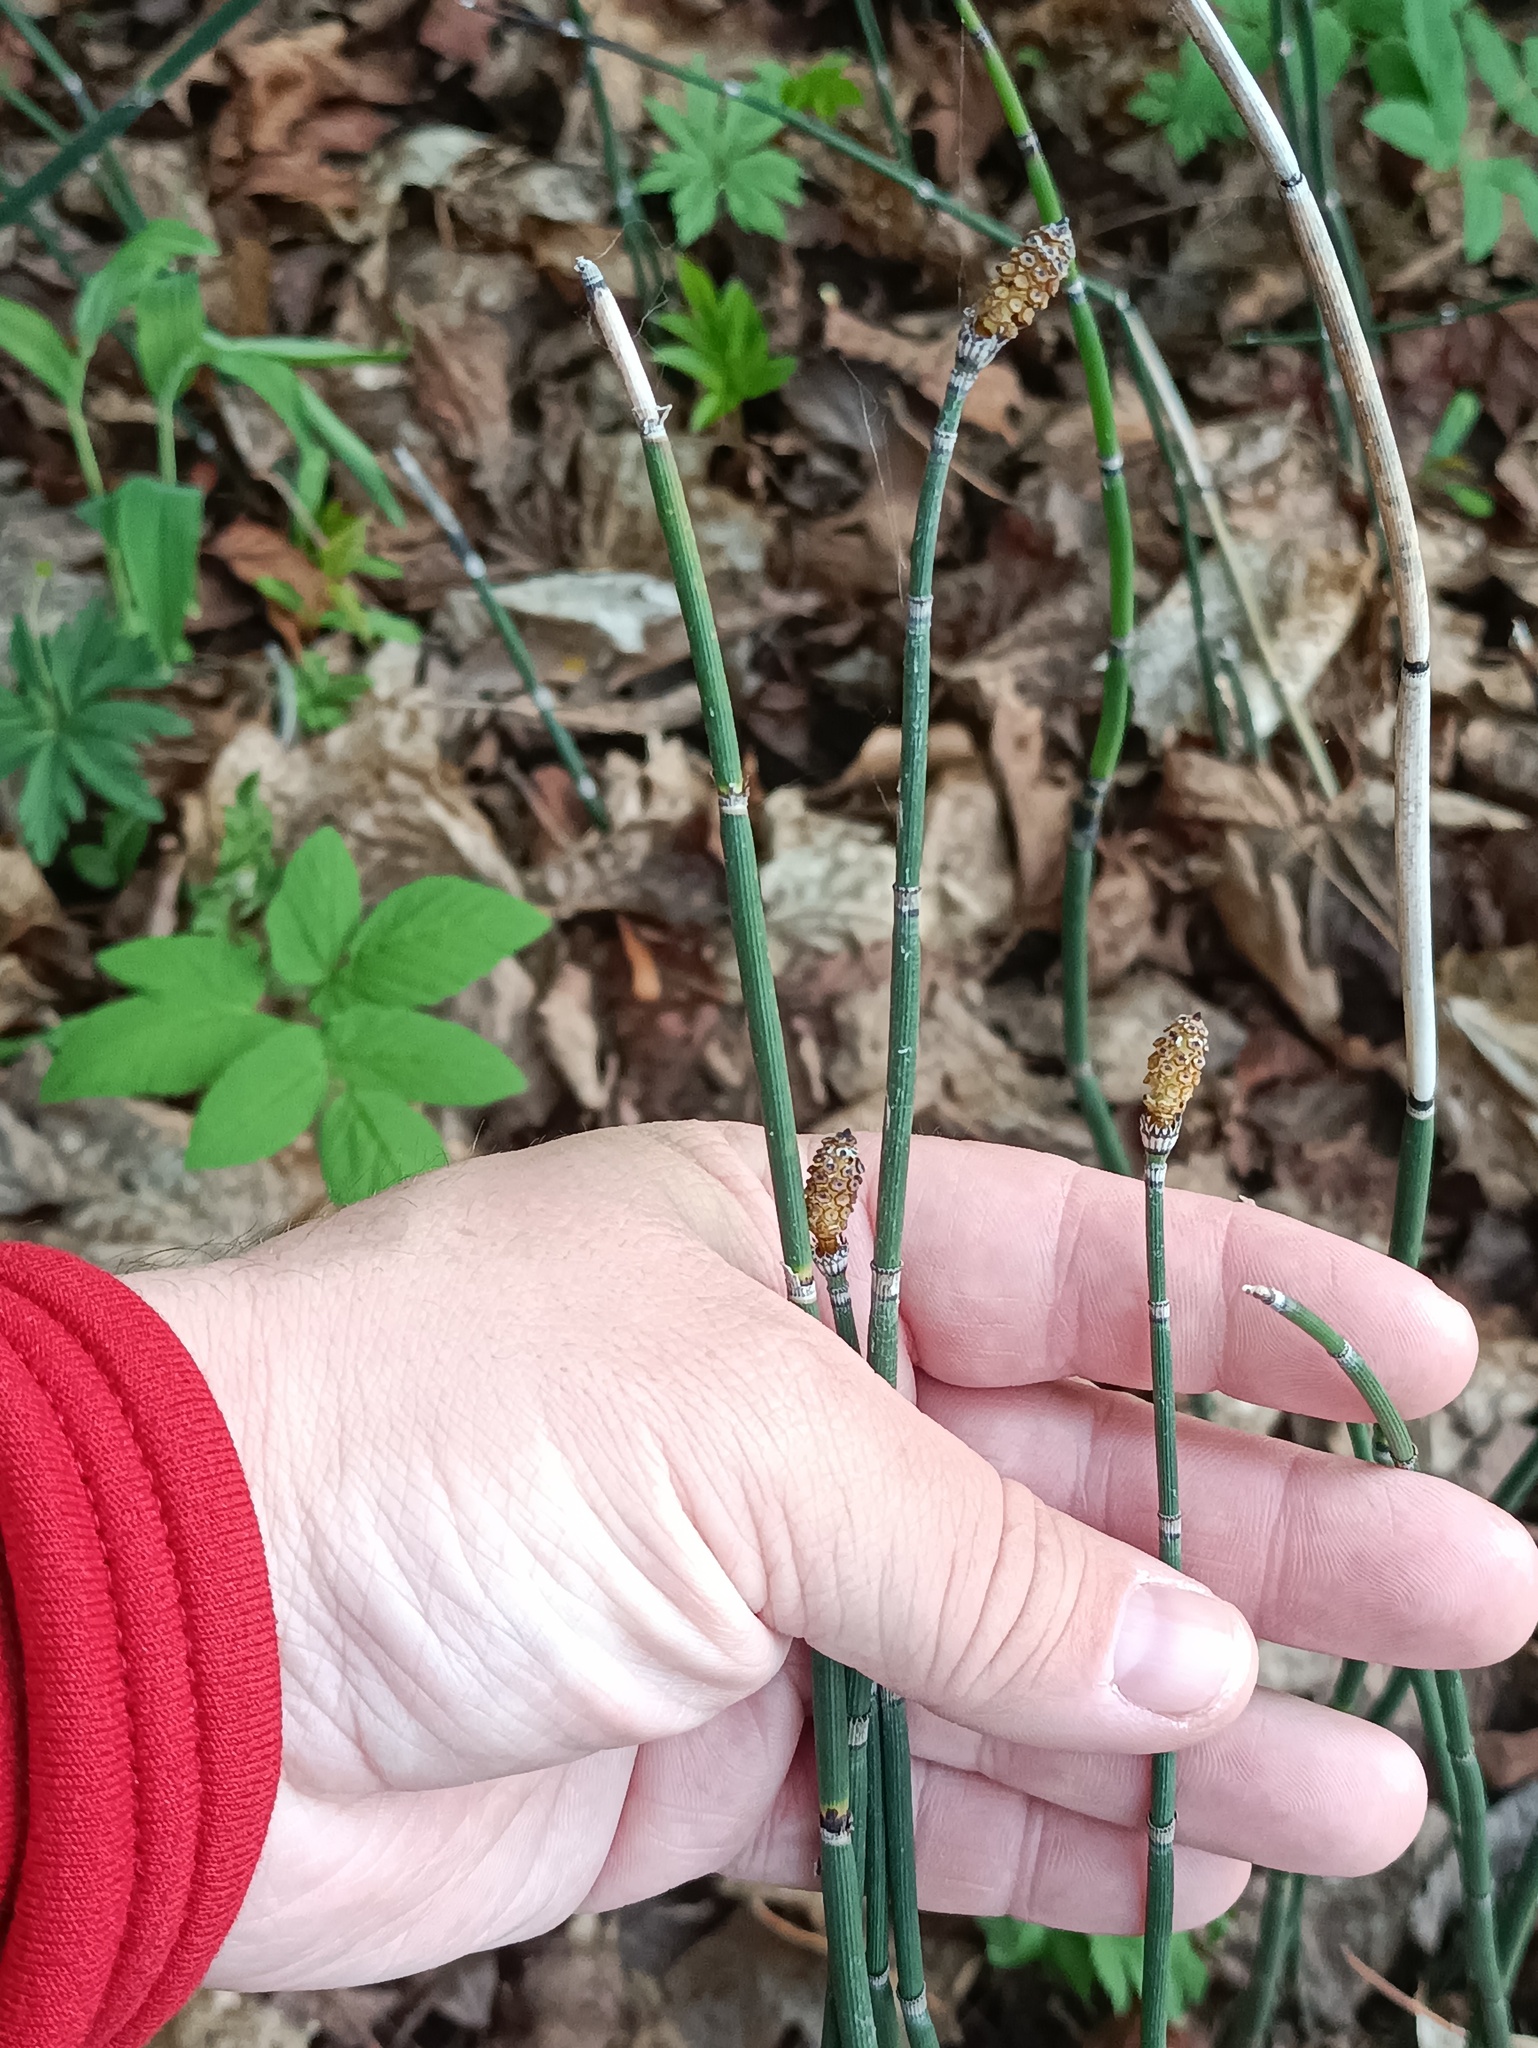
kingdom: Plantae
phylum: Tracheophyta
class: Polypodiopsida
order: Equisetales
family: Equisetaceae
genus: Equisetum
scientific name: Equisetum hyemale
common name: Rough horsetail
